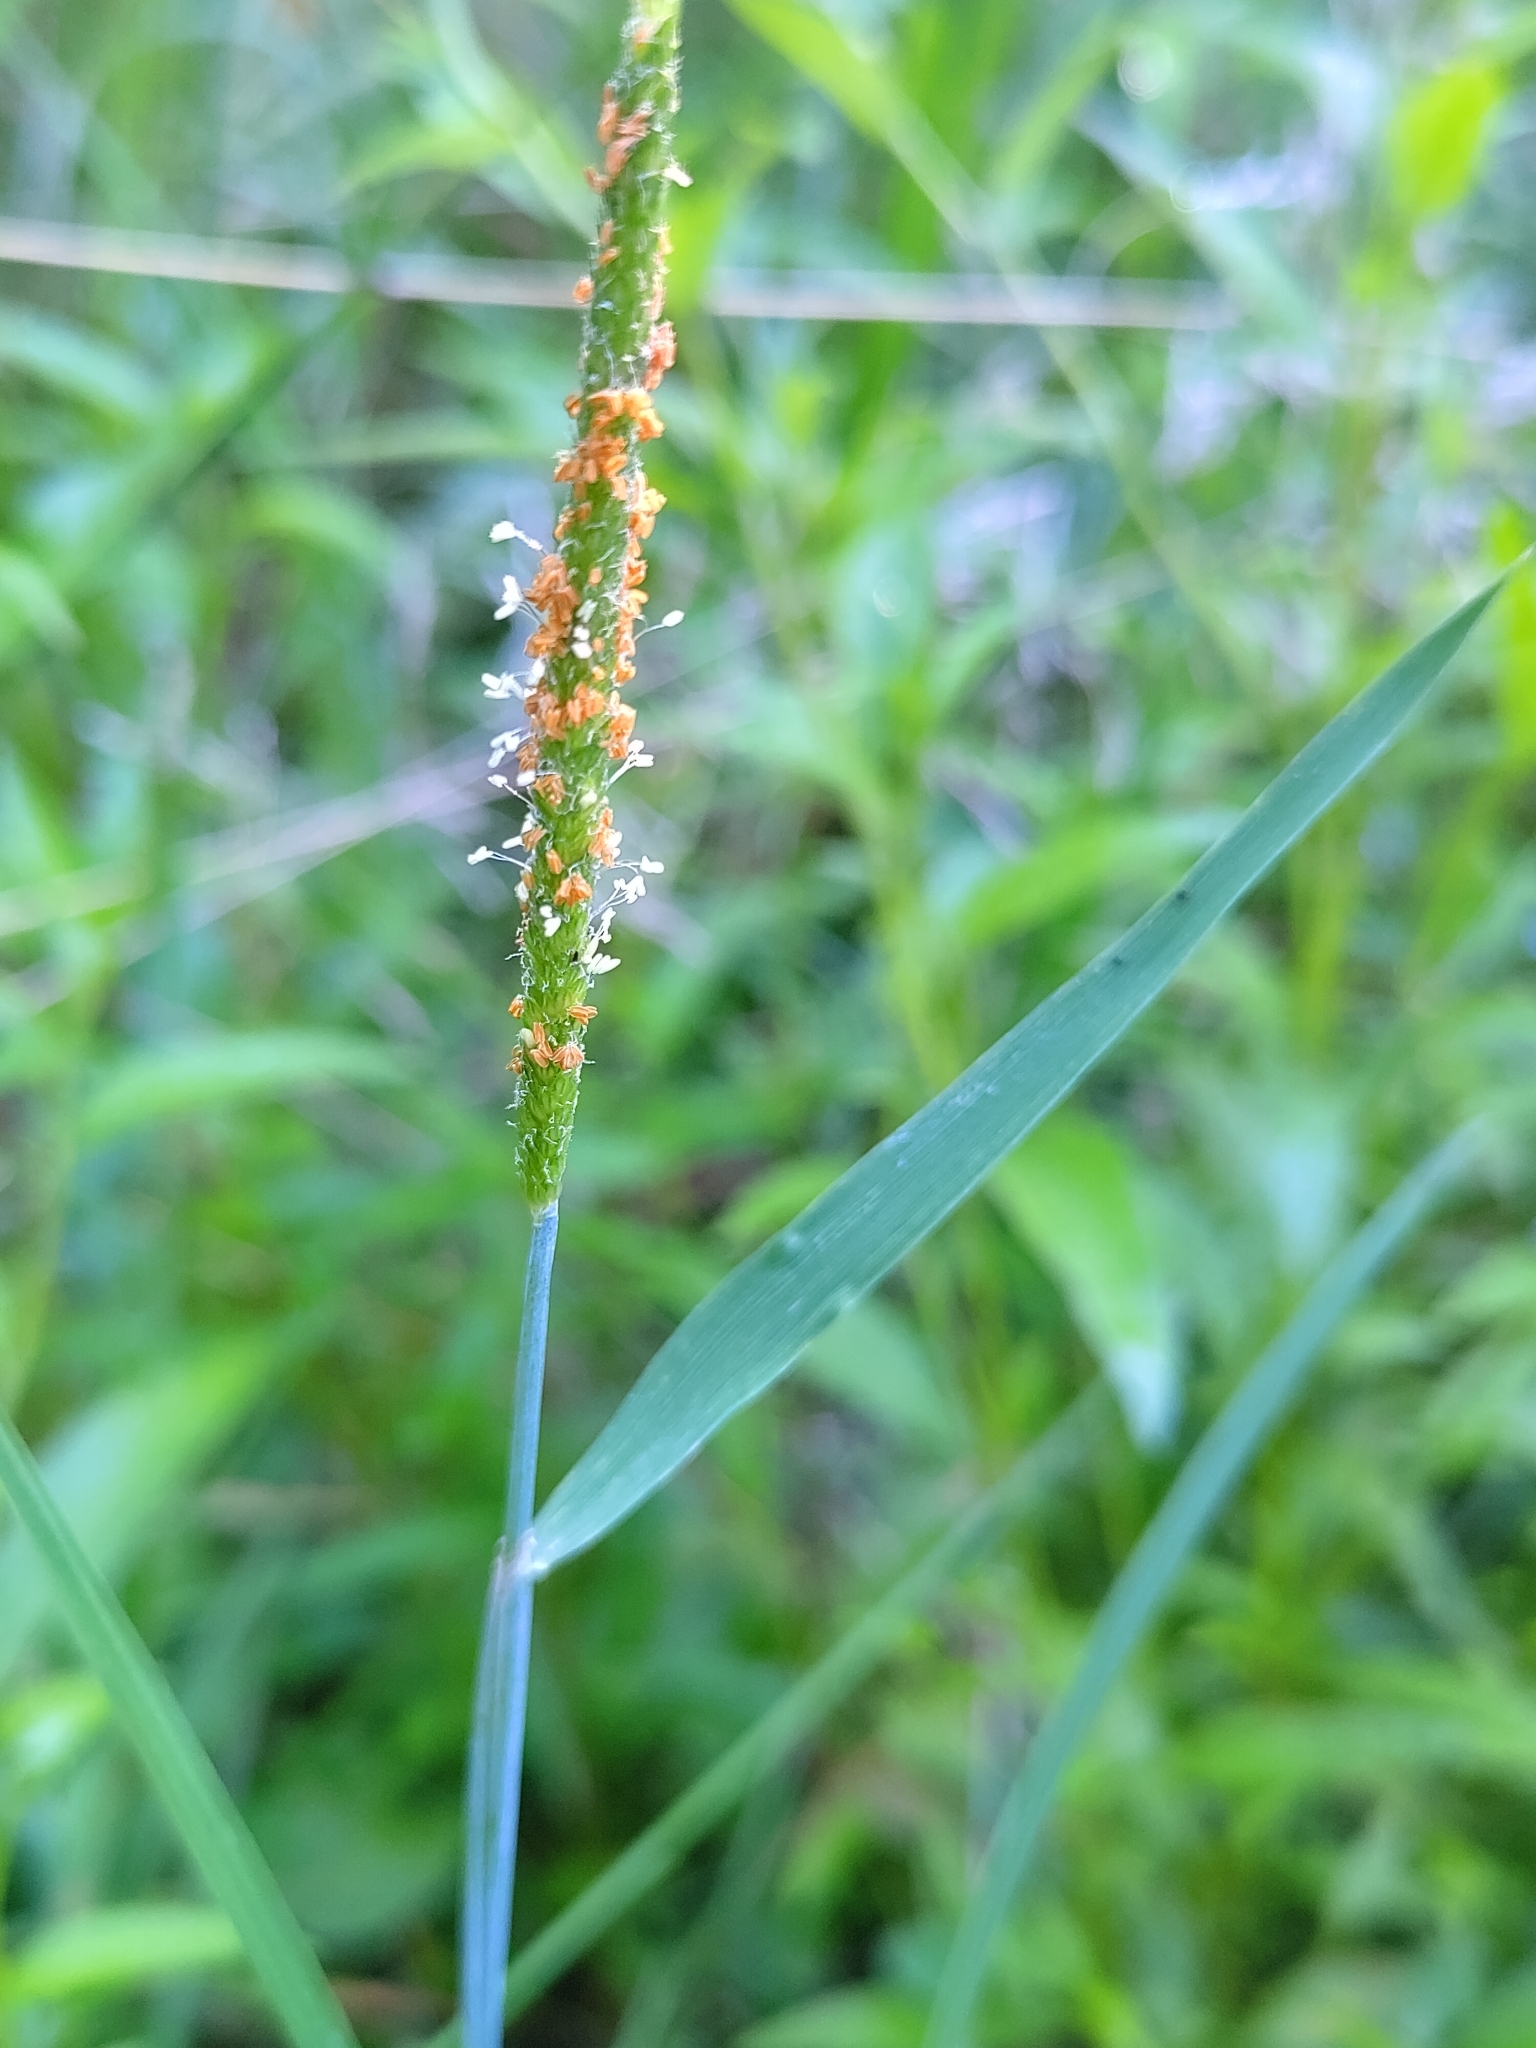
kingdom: Plantae
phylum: Tracheophyta
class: Liliopsida
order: Poales
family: Poaceae
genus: Alopecurus
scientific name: Alopecurus aequalis
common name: Orange foxtail
